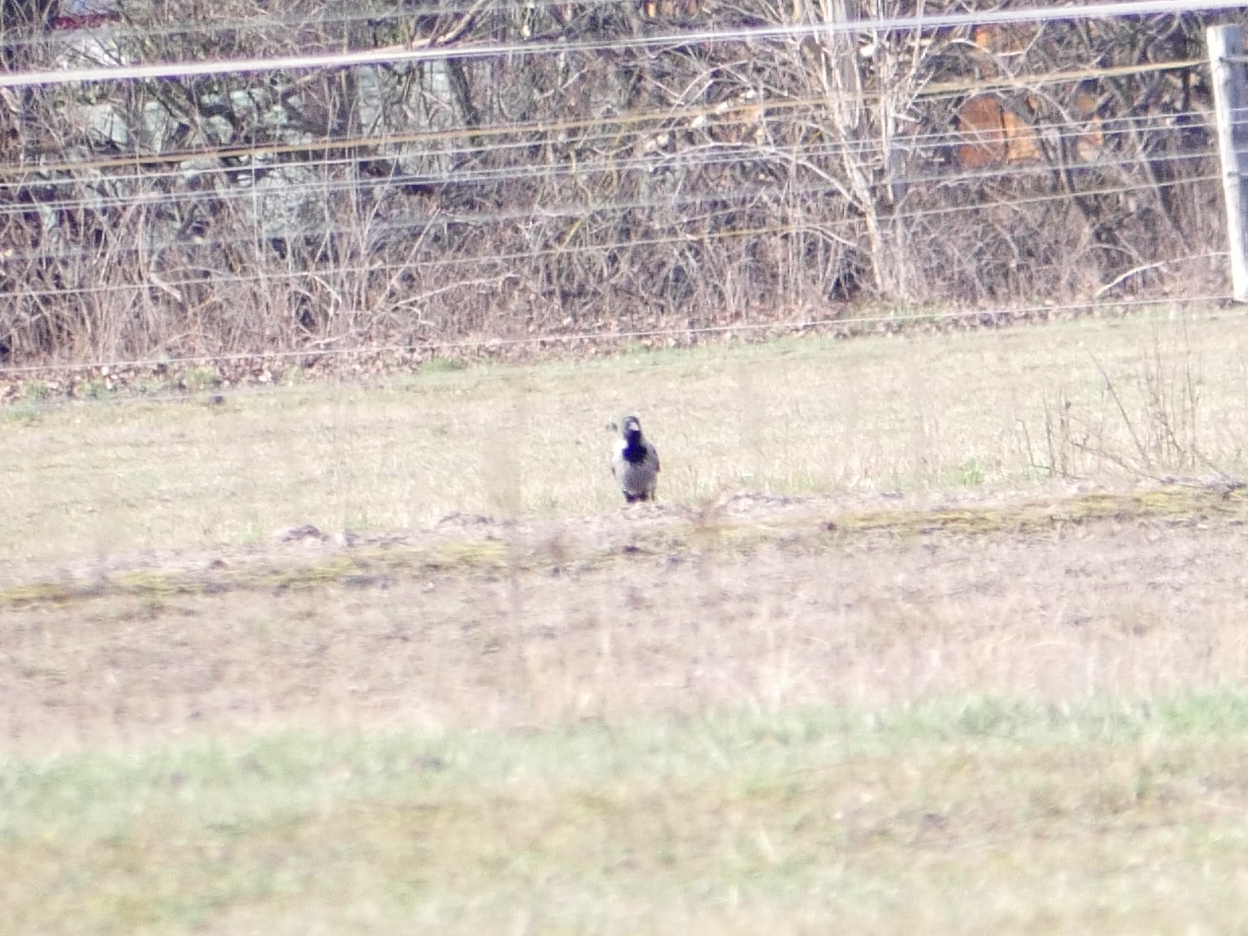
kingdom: Animalia
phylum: Chordata
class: Aves
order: Passeriformes
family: Corvidae
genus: Corvus
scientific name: Corvus cornix
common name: Hooded crow
